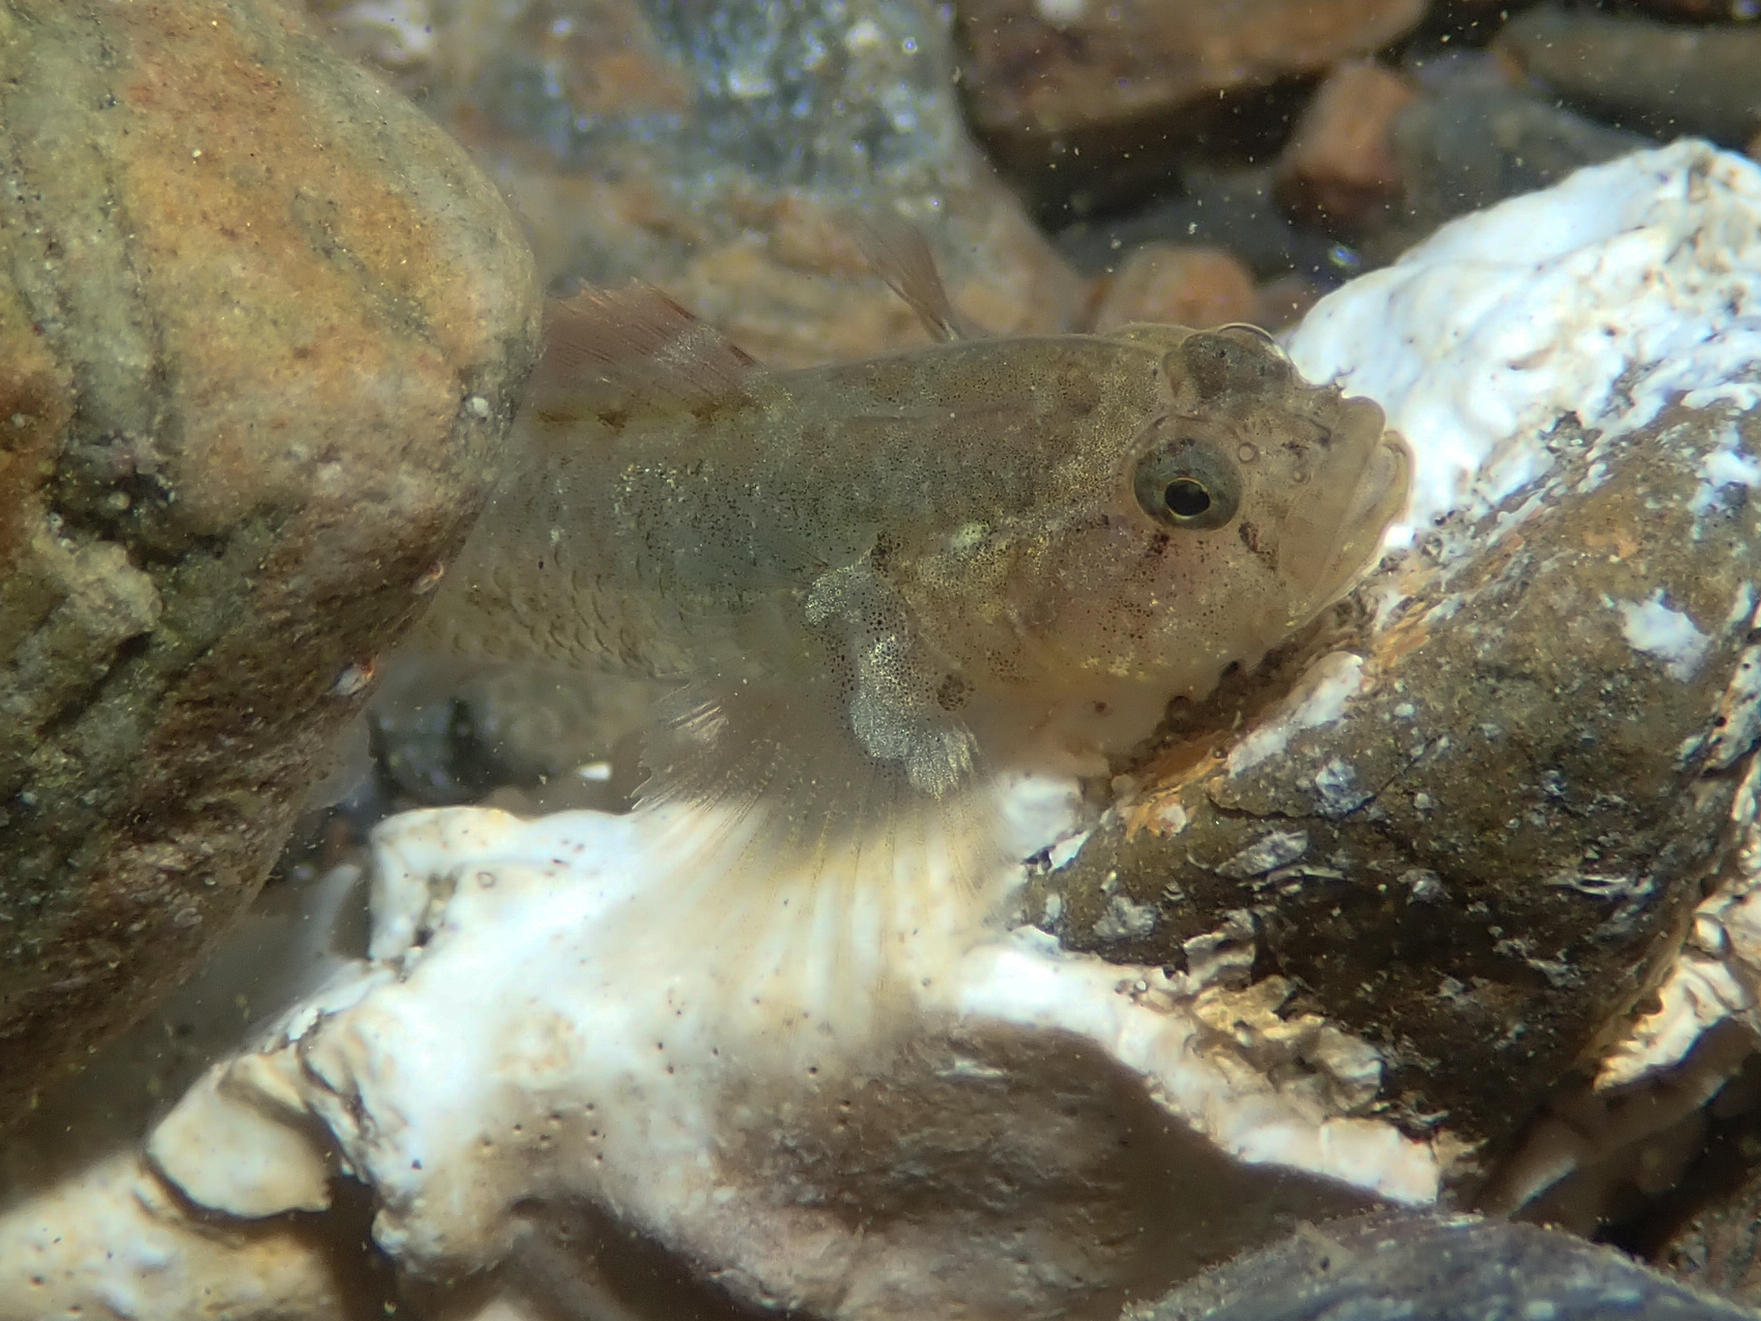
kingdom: Animalia
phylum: Chordata
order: Perciformes
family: Gobiidae
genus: Zebrus
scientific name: Zebrus zebrus
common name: Zebra goby
